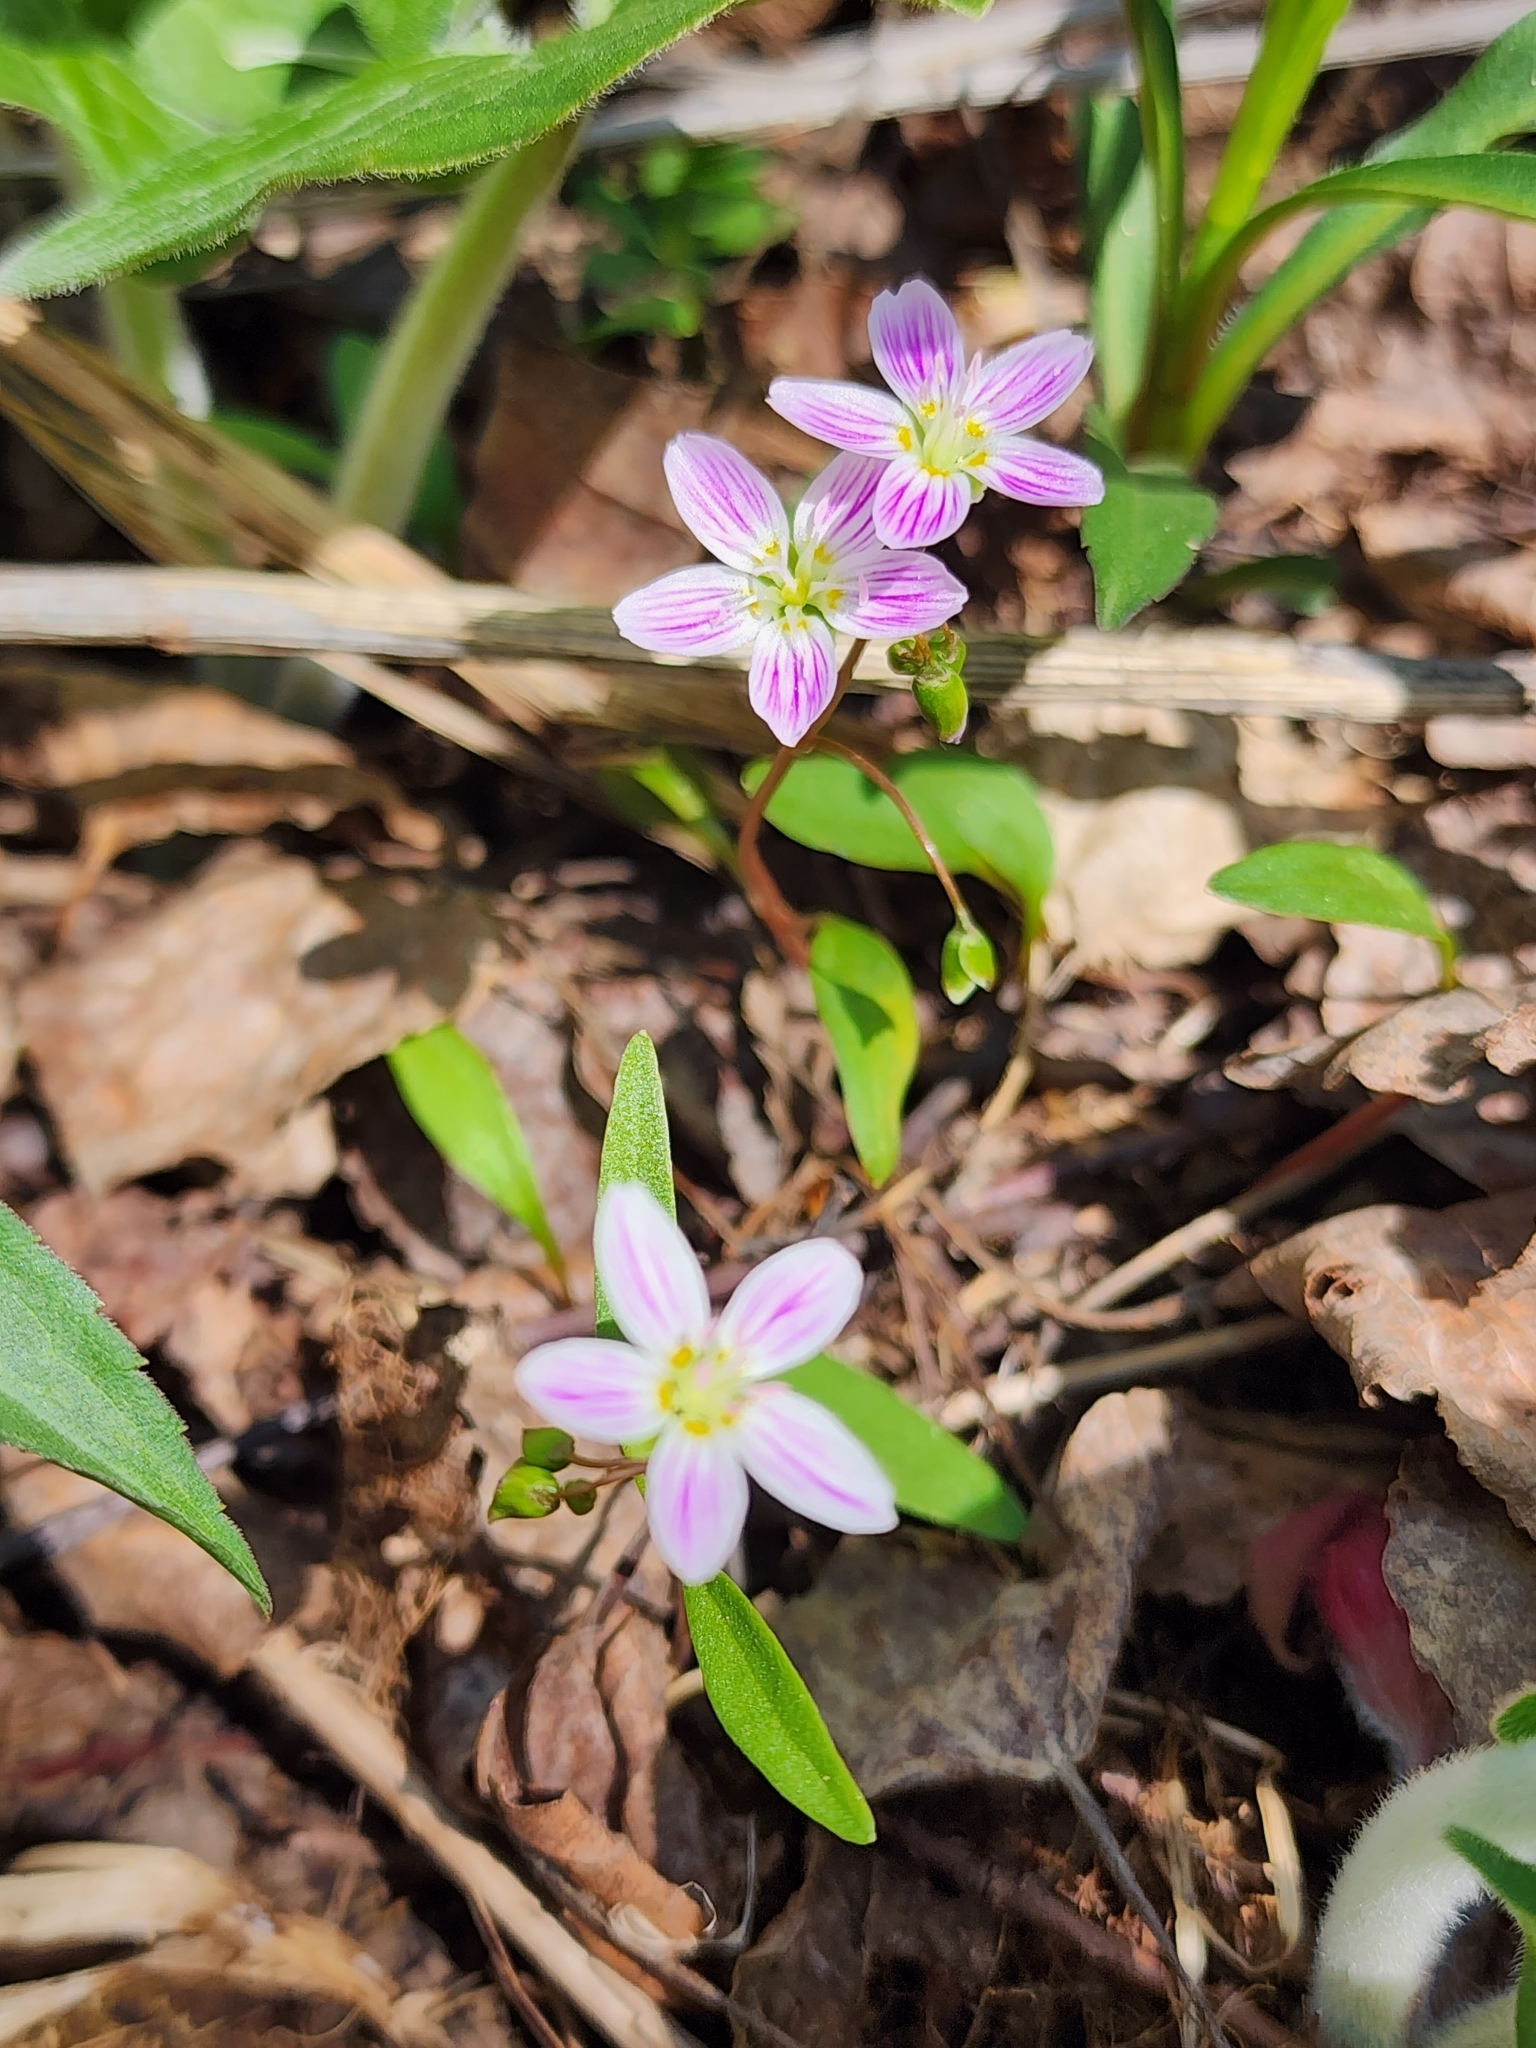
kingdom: Plantae
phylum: Tracheophyta
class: Magnoliopsida
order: Caryophyllales
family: Montiaceae
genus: Claytonia
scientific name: Claytonia caroliniana
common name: Carolina spring beauty
